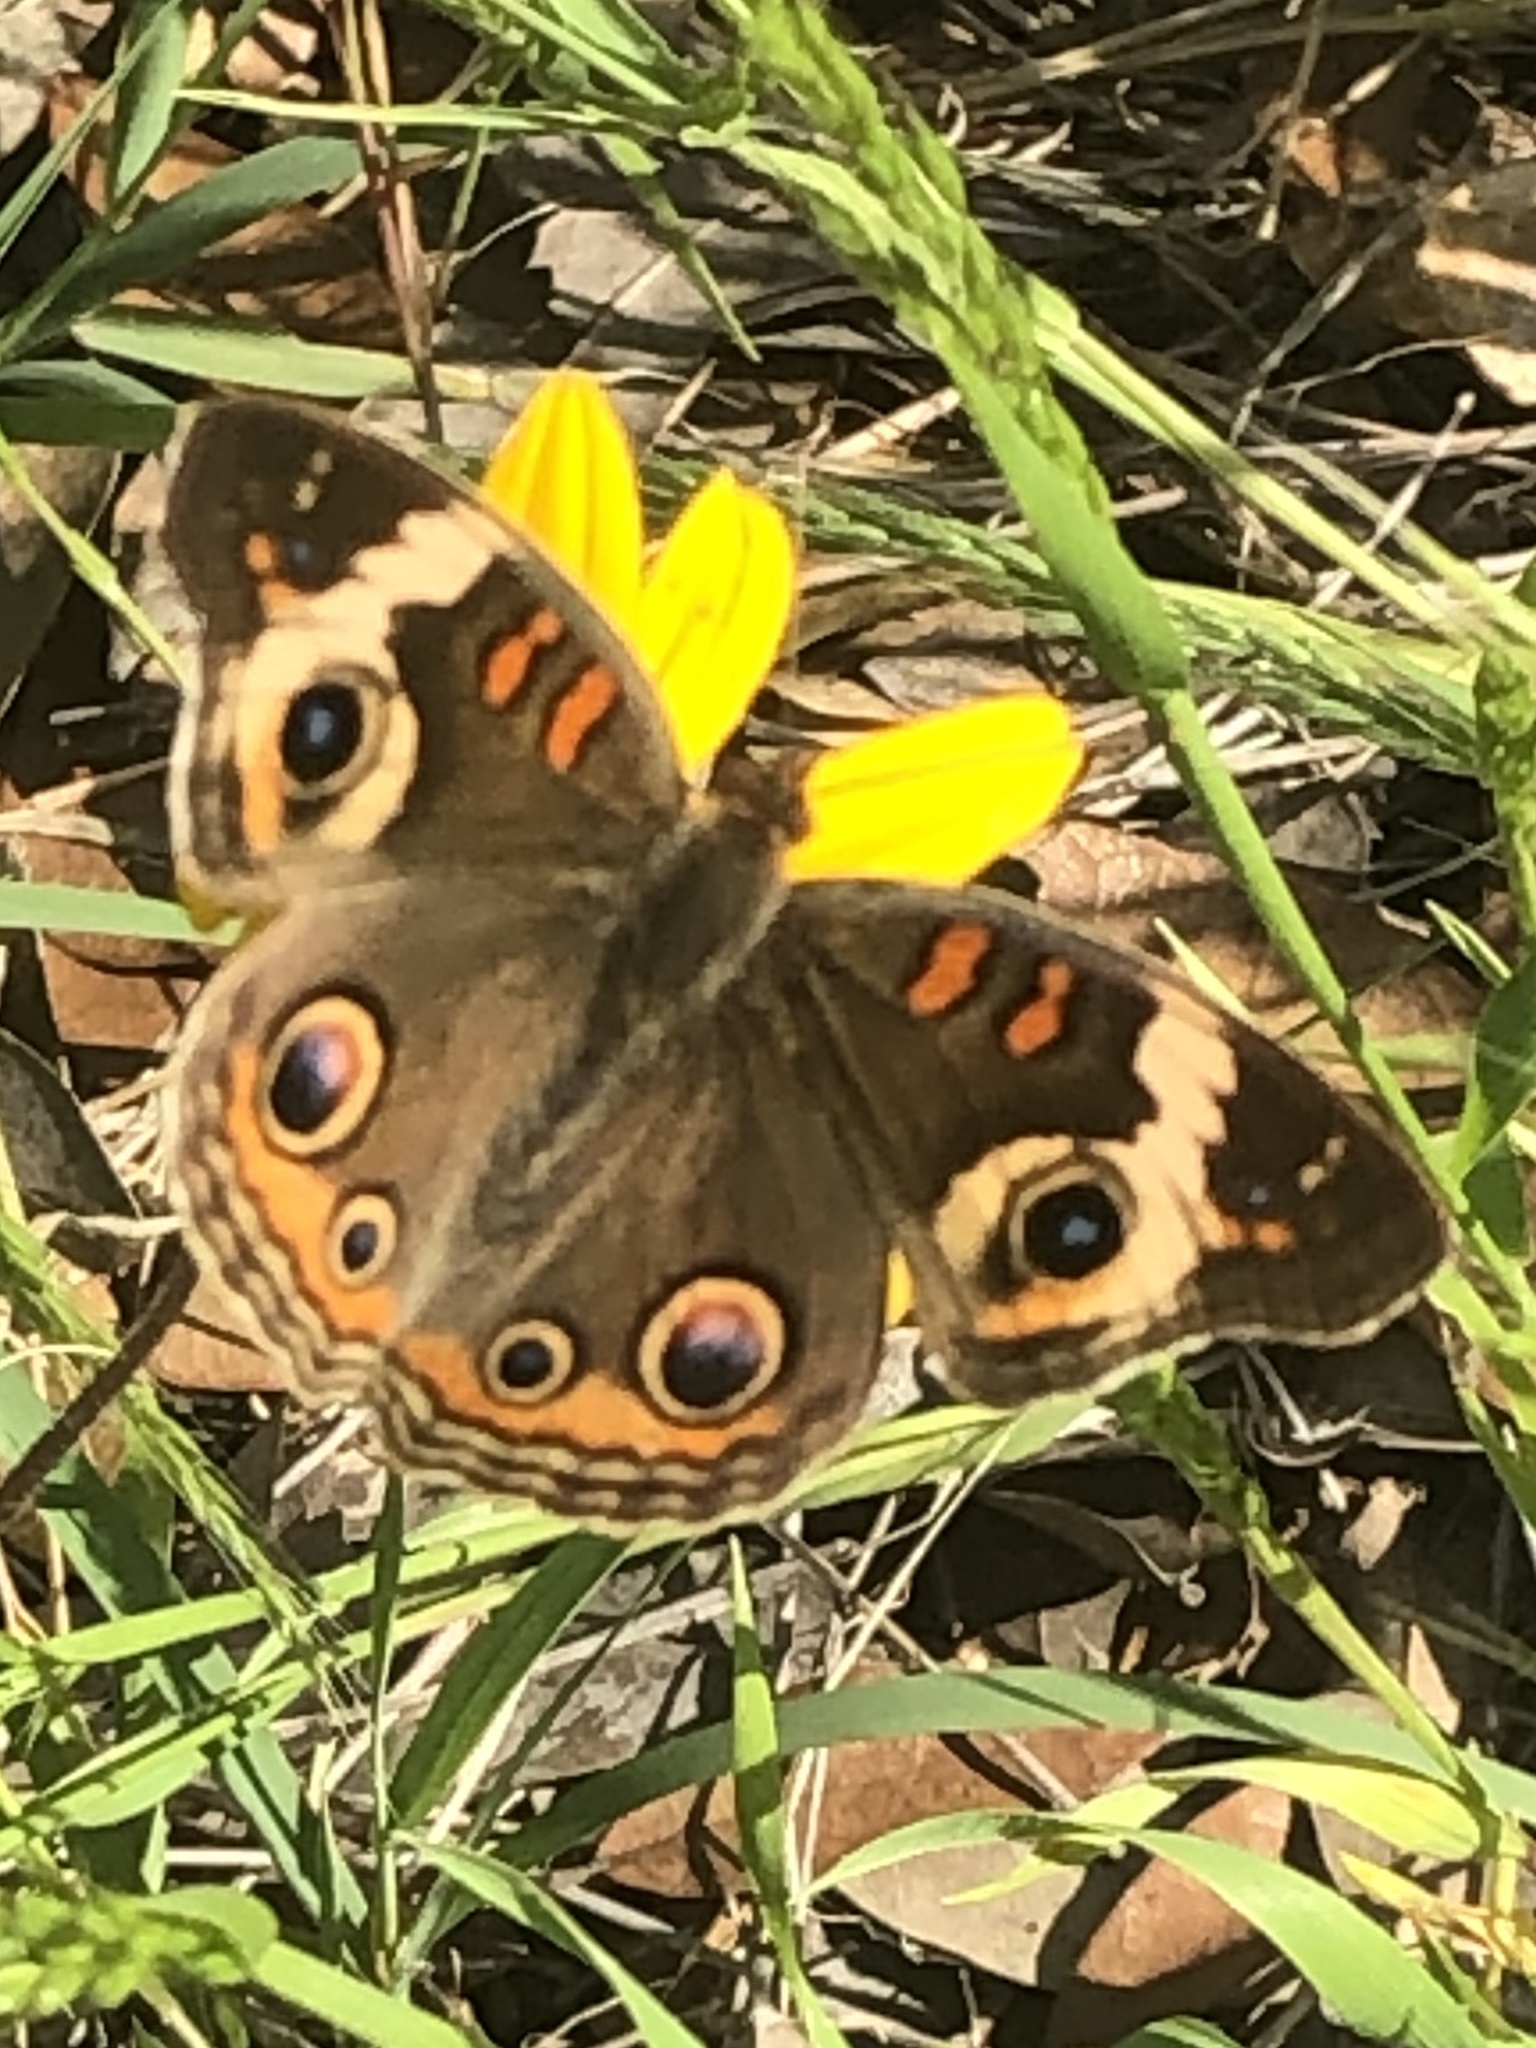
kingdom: Animalia
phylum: Arthropoda
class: Insecta
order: Lepidoptera
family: Nymphalidae
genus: Junonia
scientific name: Junonia coenia
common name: Common buckeye
